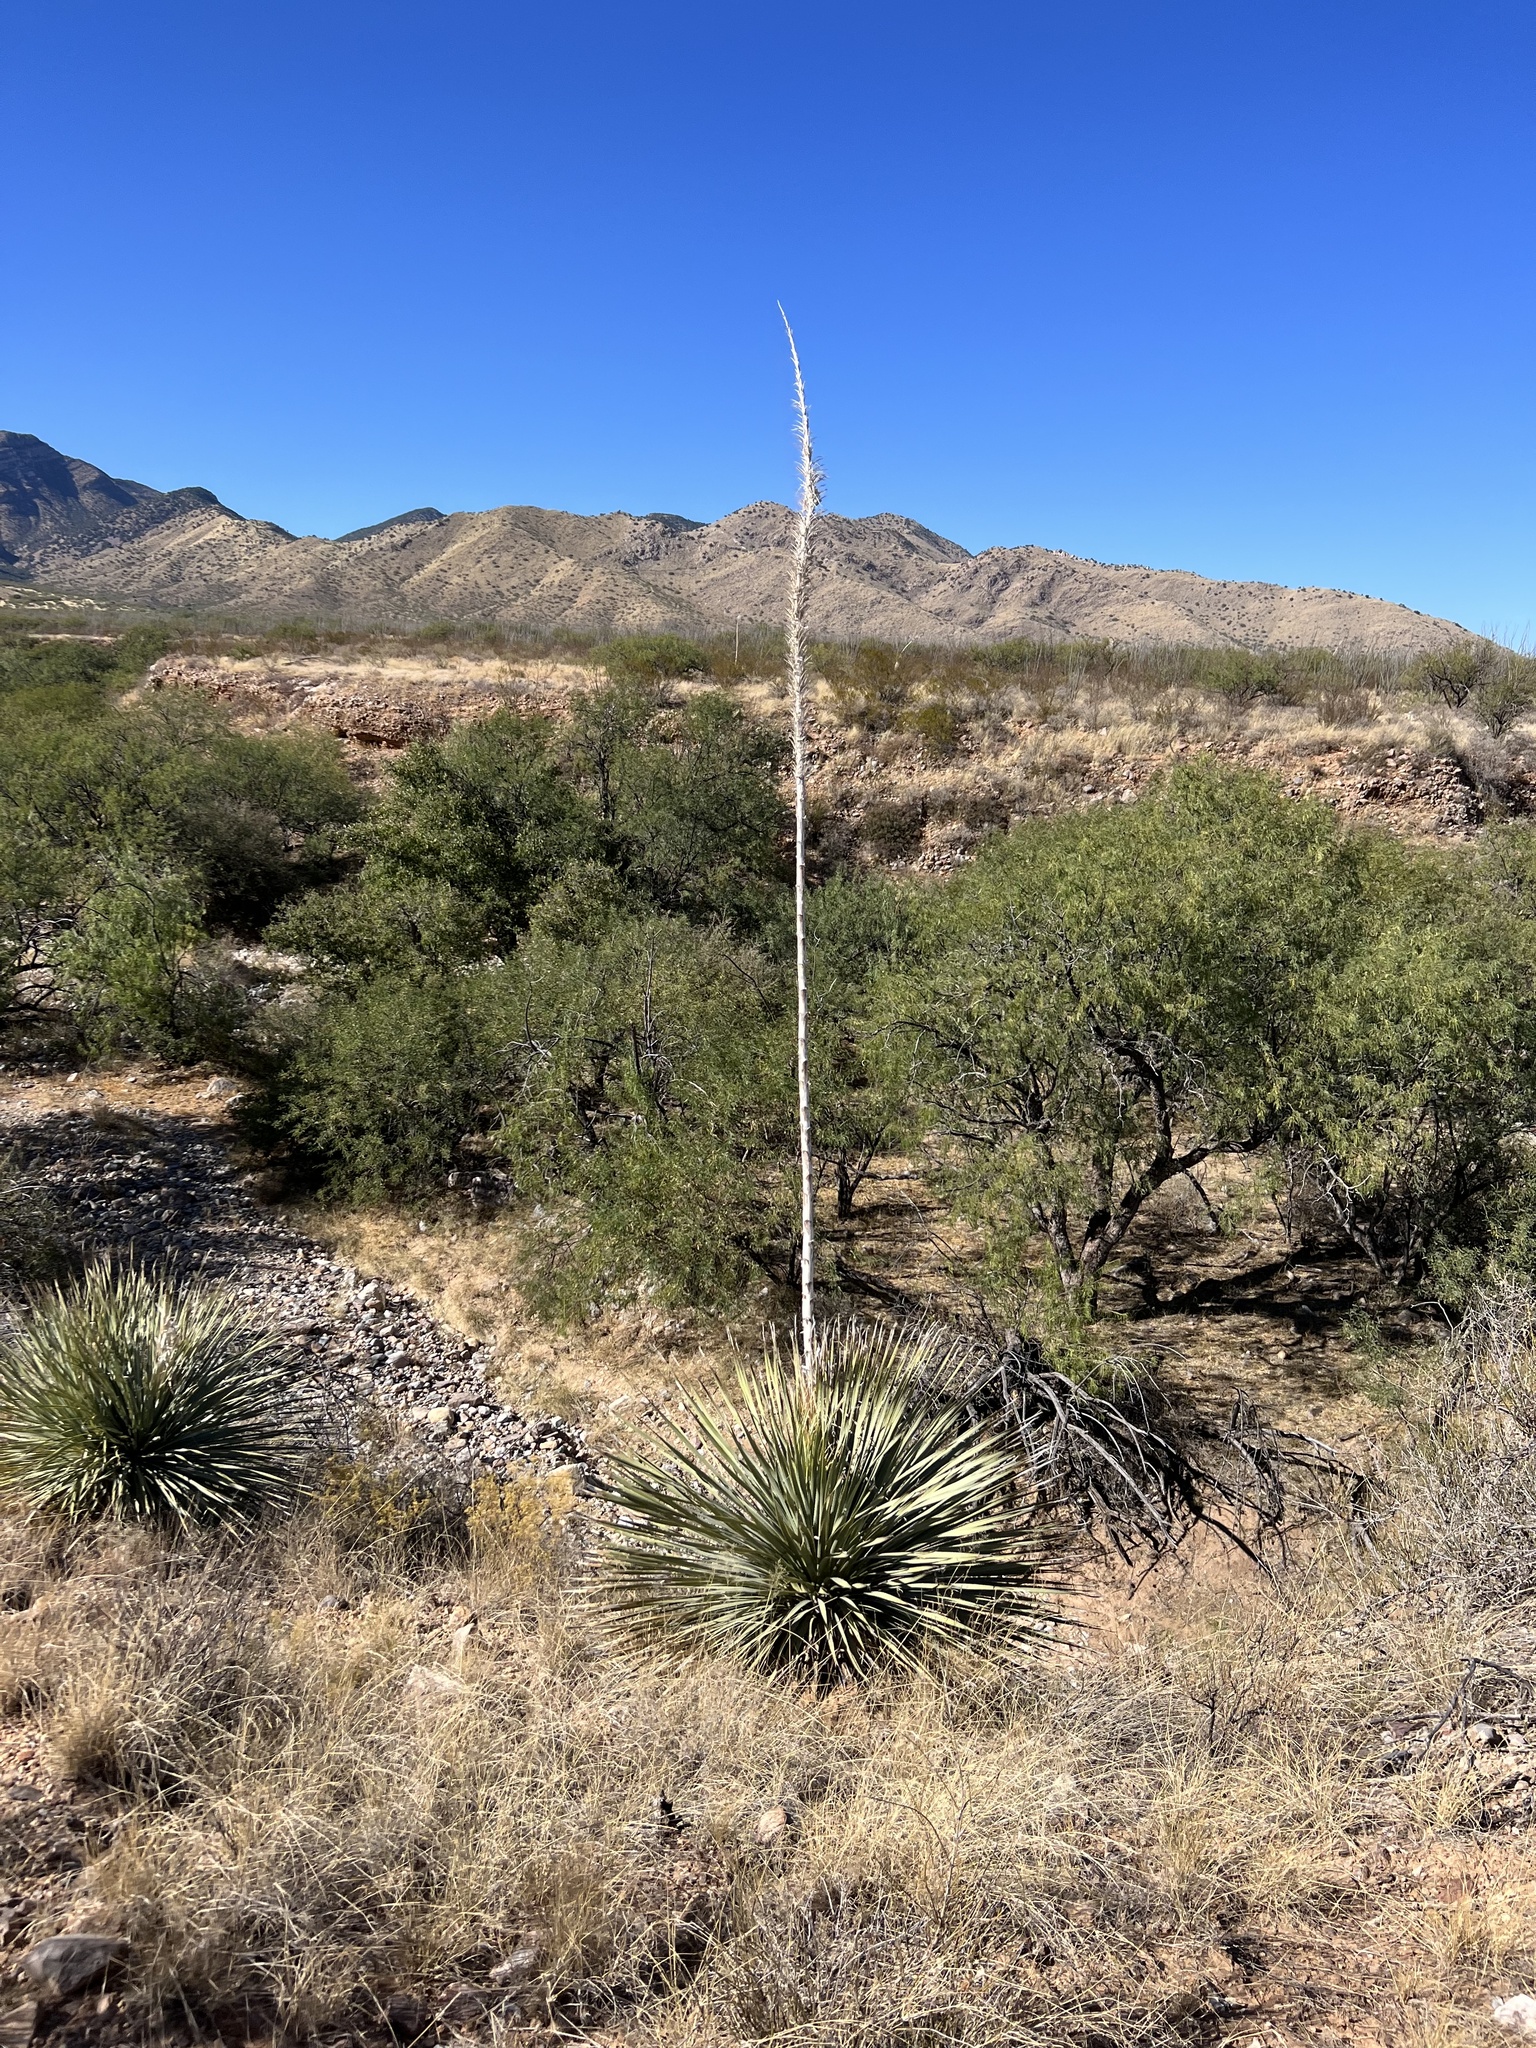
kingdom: Plantae
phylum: Tracheophyta
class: Liliopsida
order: Asparagales
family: Asparagaceae
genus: Dasylirion
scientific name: Dasylirion wheeleri
